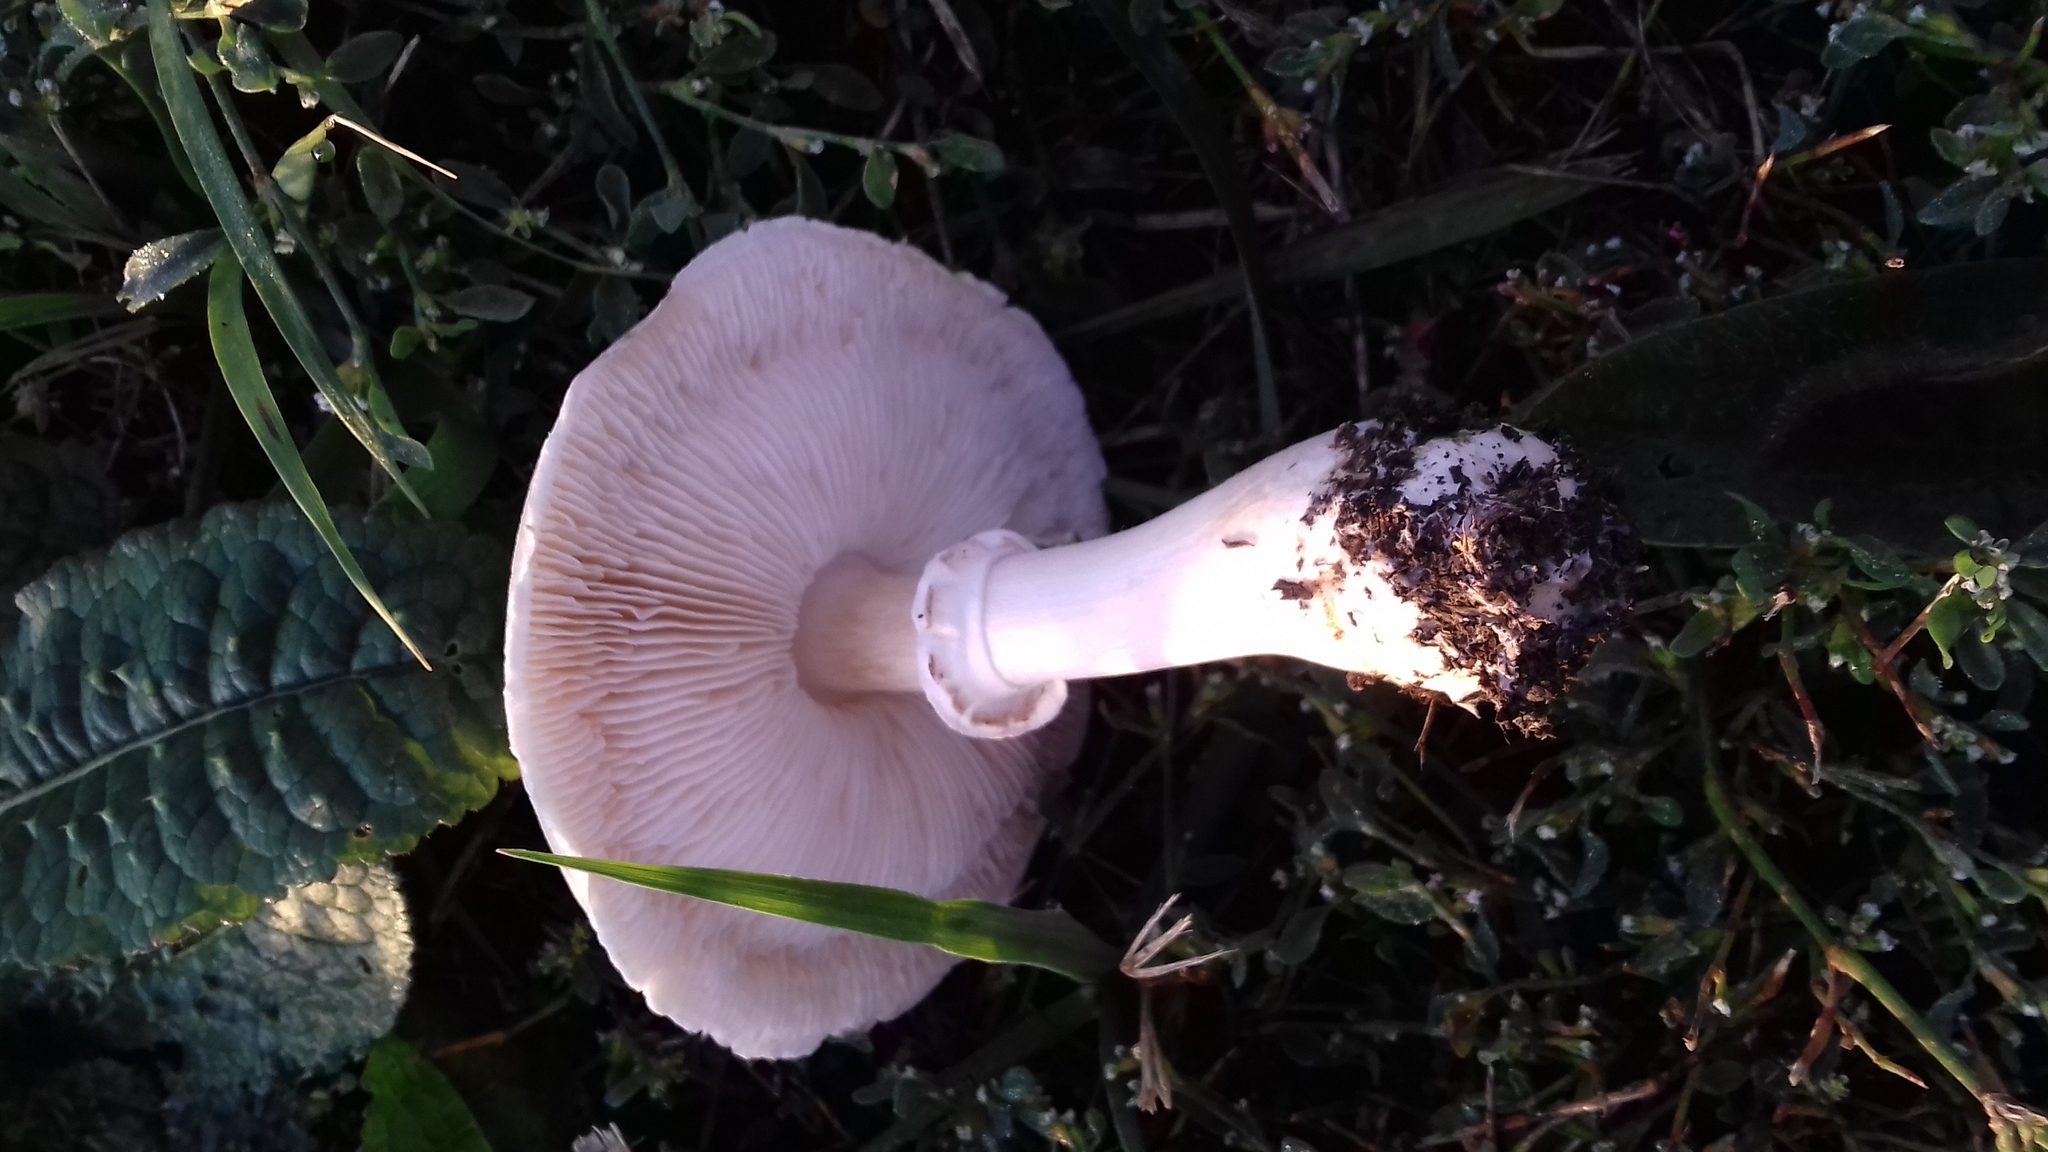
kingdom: Fungi
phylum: Basidiomycota
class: Agaricomycetes
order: Agaricales
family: Agaricaceae
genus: Leucoagaricus
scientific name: Leucoagaricus leucothites
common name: White dapperling
